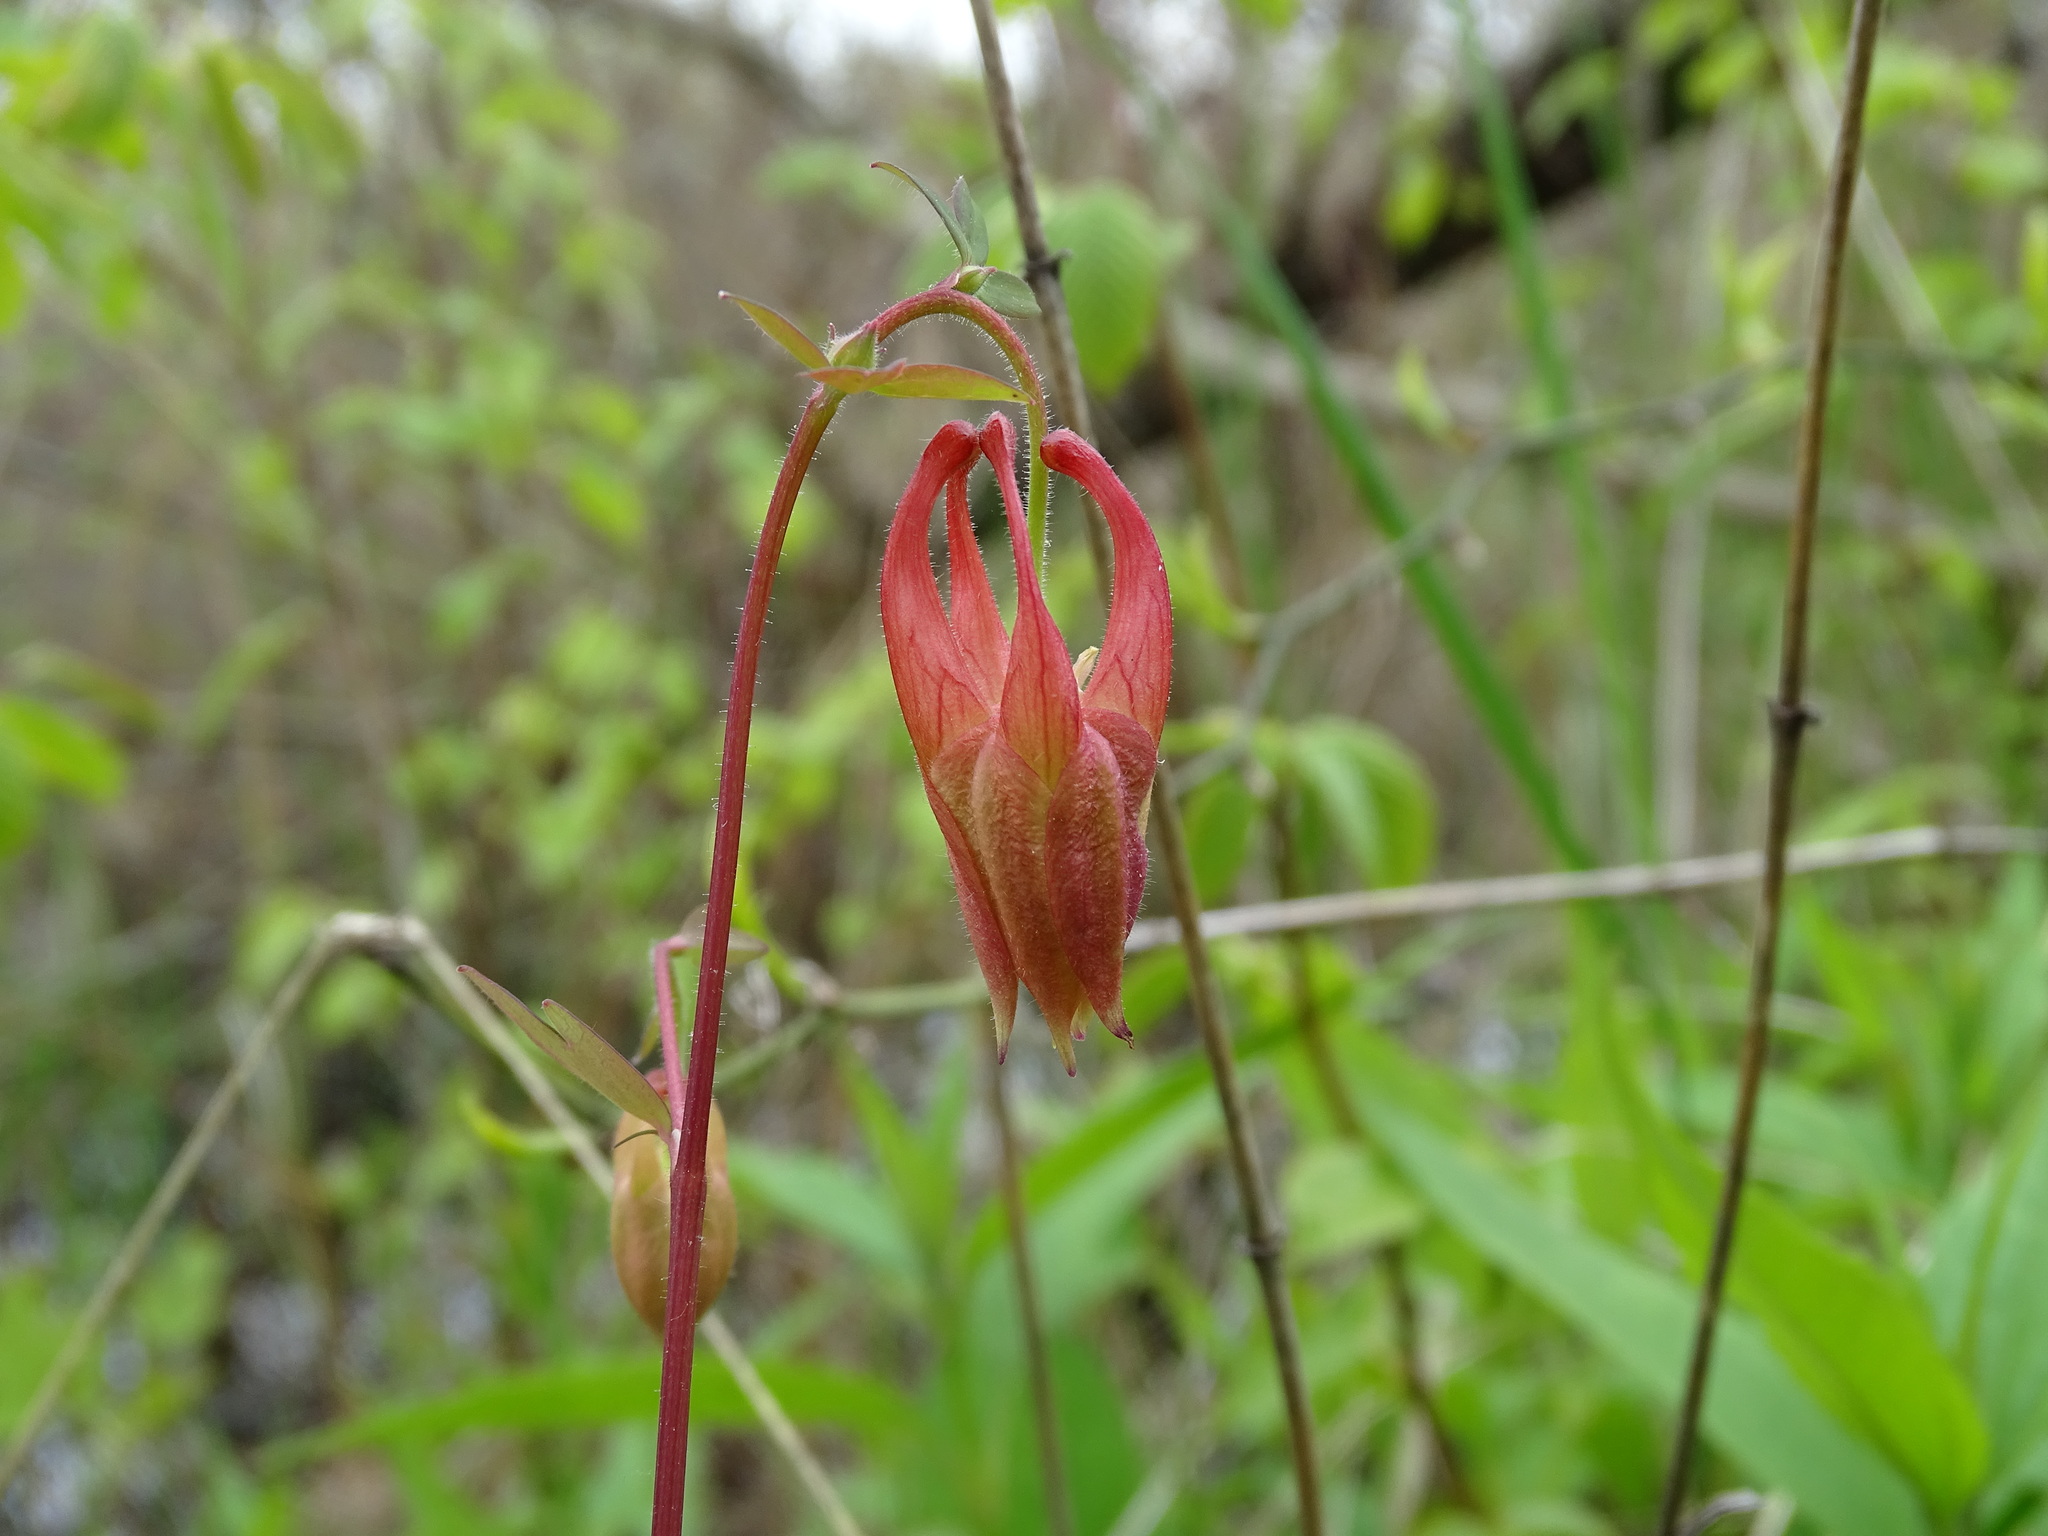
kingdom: Plantae
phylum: Tracheophyta
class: Magnoliopsida
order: Ranunculales
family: Ranunculaceae
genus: Aquilegia
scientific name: Aquilegia canadensis
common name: American columbine
